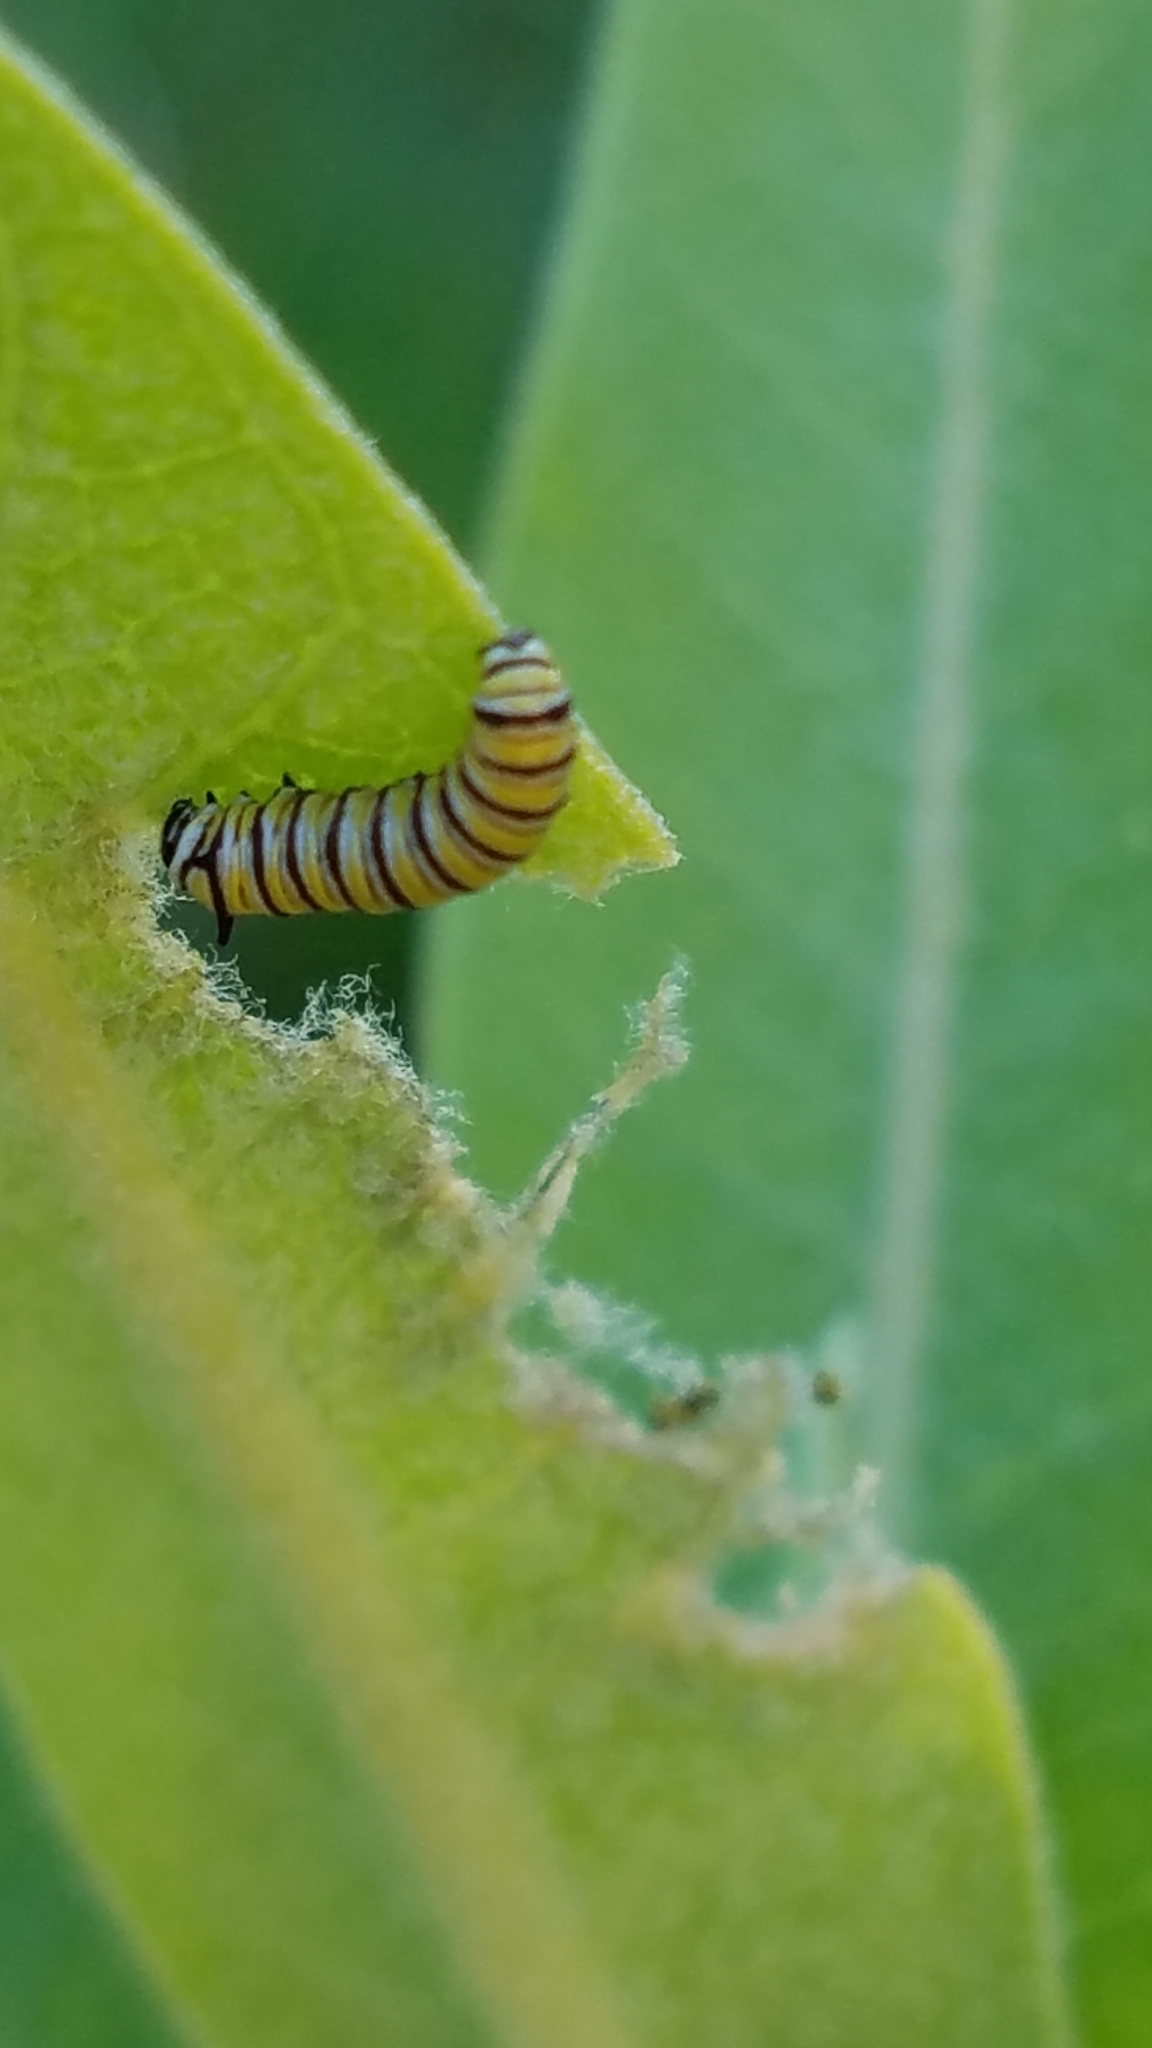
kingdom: Animalia
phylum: Arthropoda
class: Insecta
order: Lepidoptera
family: Nymphalidae
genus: Danaus
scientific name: Danaus plexippus
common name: Monarch
